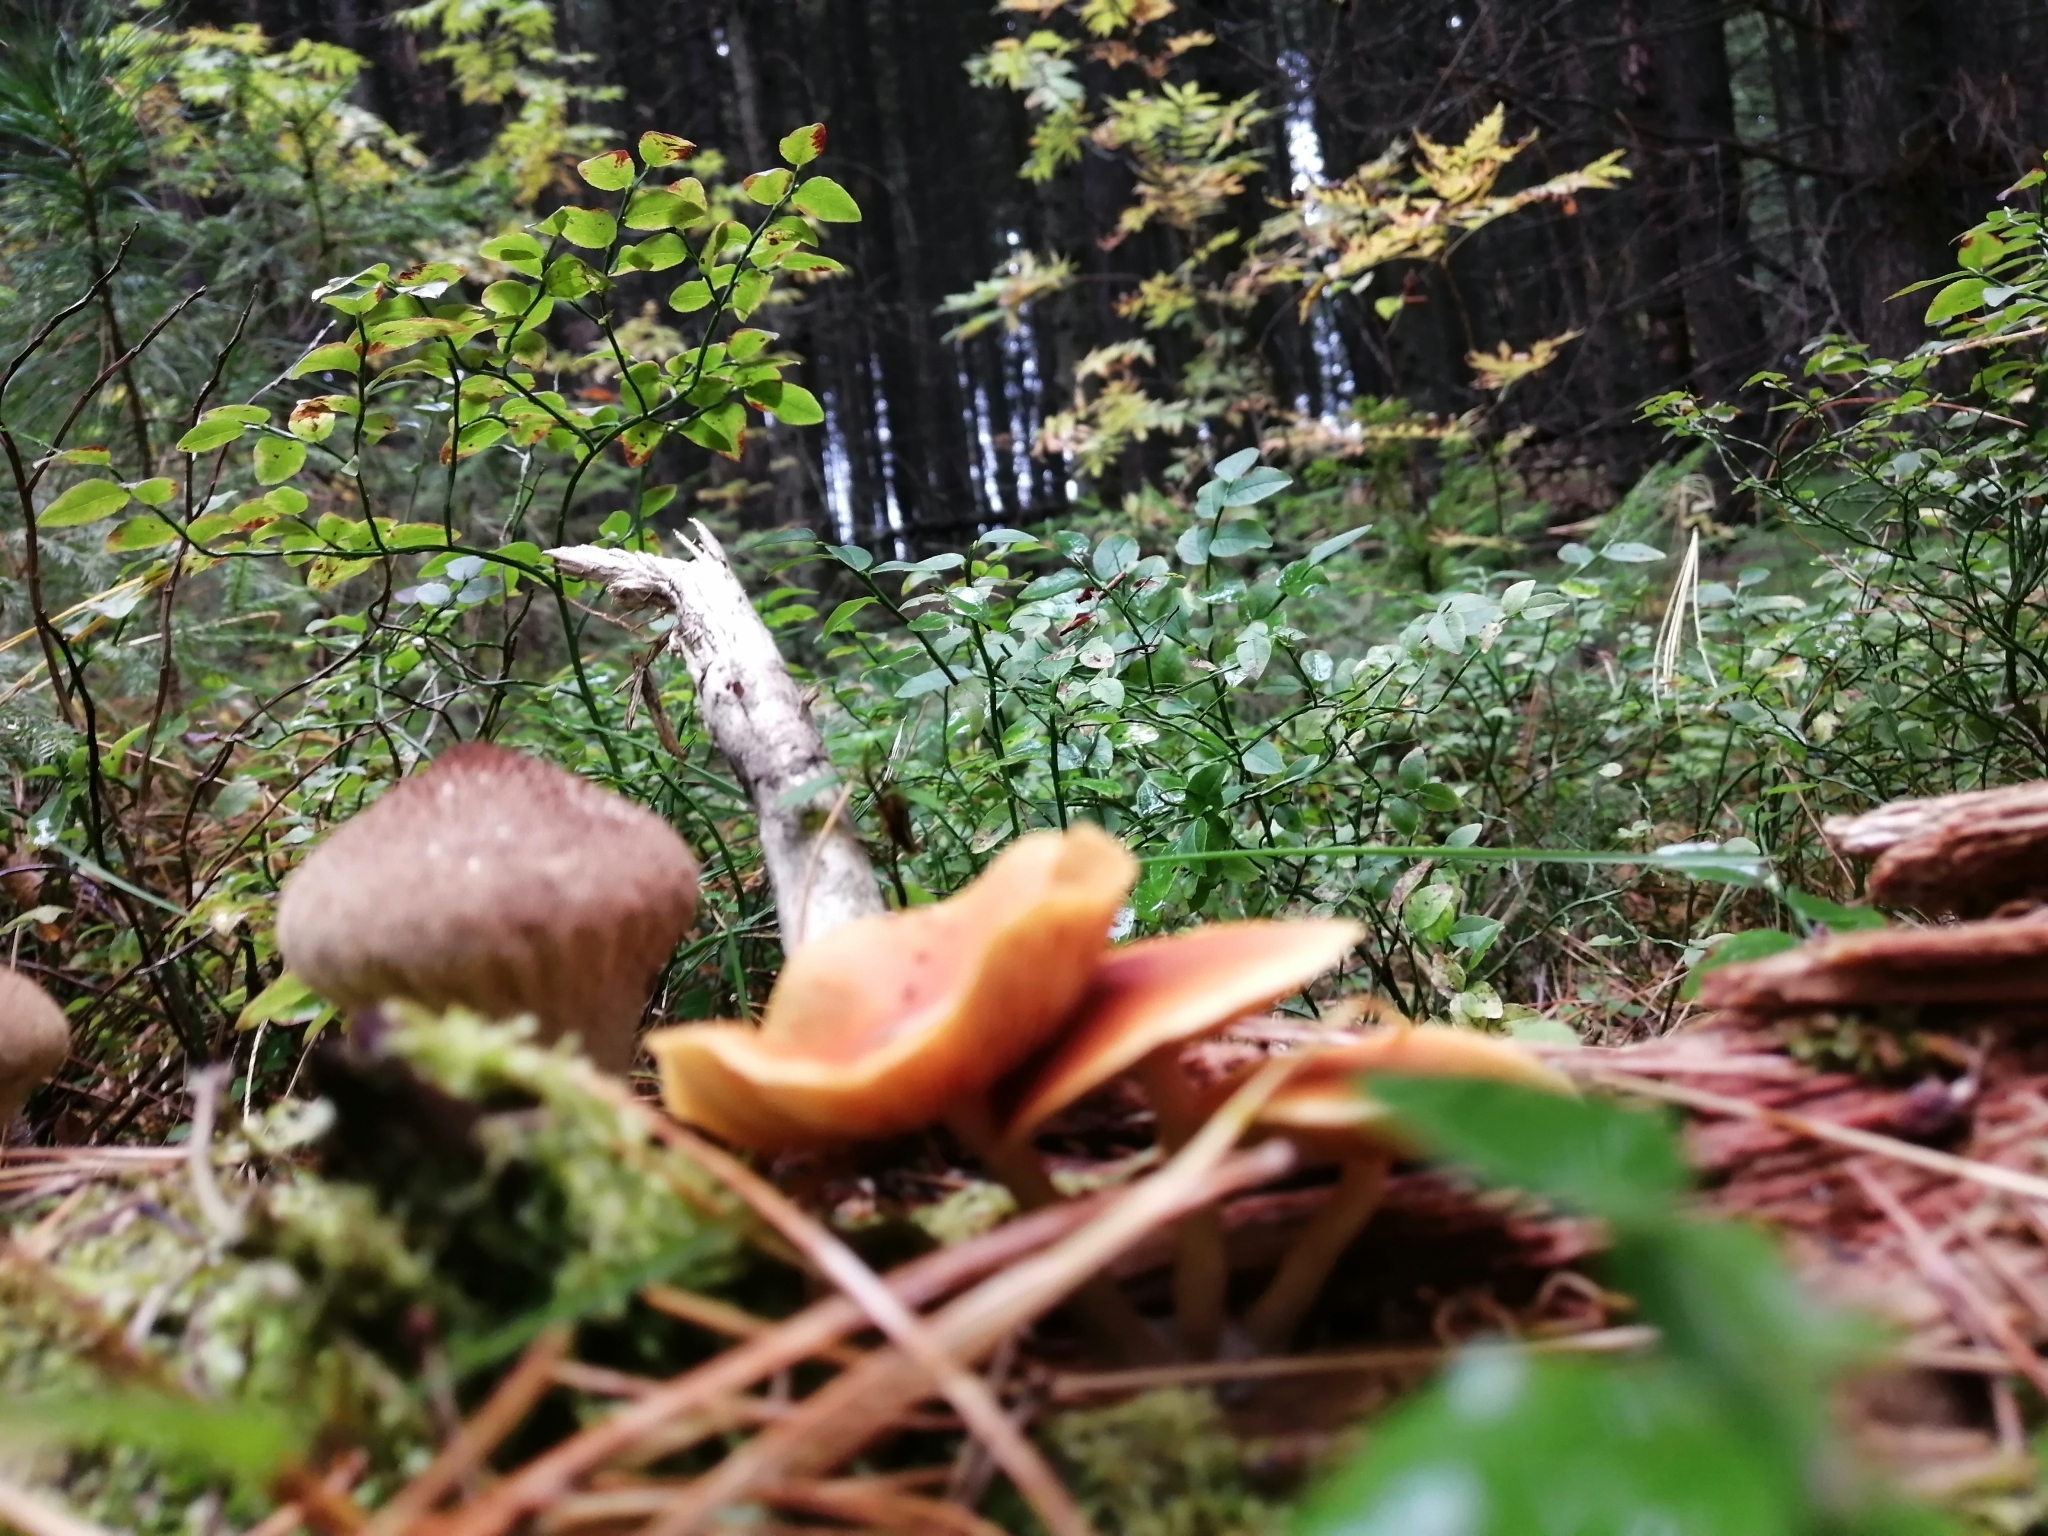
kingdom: Fungi
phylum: Basidiomycota
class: Agaricomycetes
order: Agaricales
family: Hymenogastraceae
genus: Gymnopilus
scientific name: Gymnopilus penetrans
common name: Common rustgill
